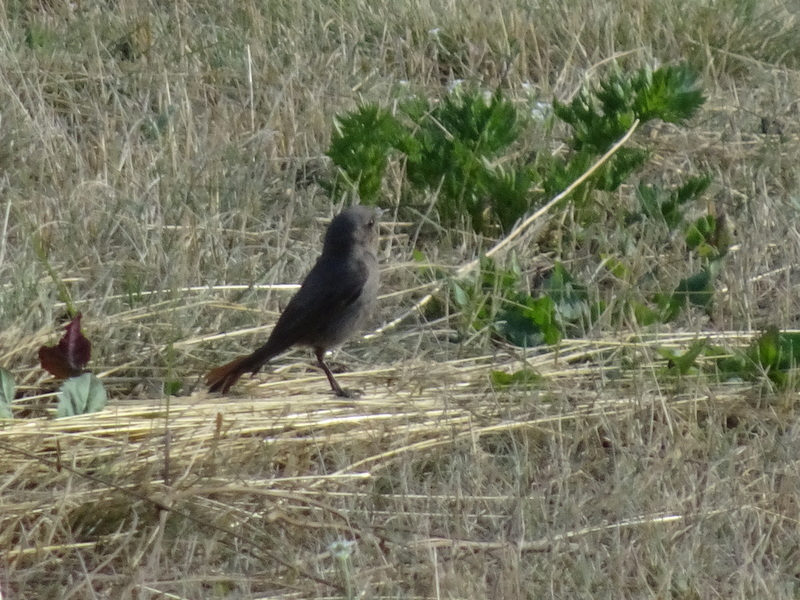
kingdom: Animalia
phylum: Chordata
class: Aves
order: Passeriformes
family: Muscicapidae
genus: Phoenicurus
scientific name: Phoenicurus ochruros
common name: Black redstart
